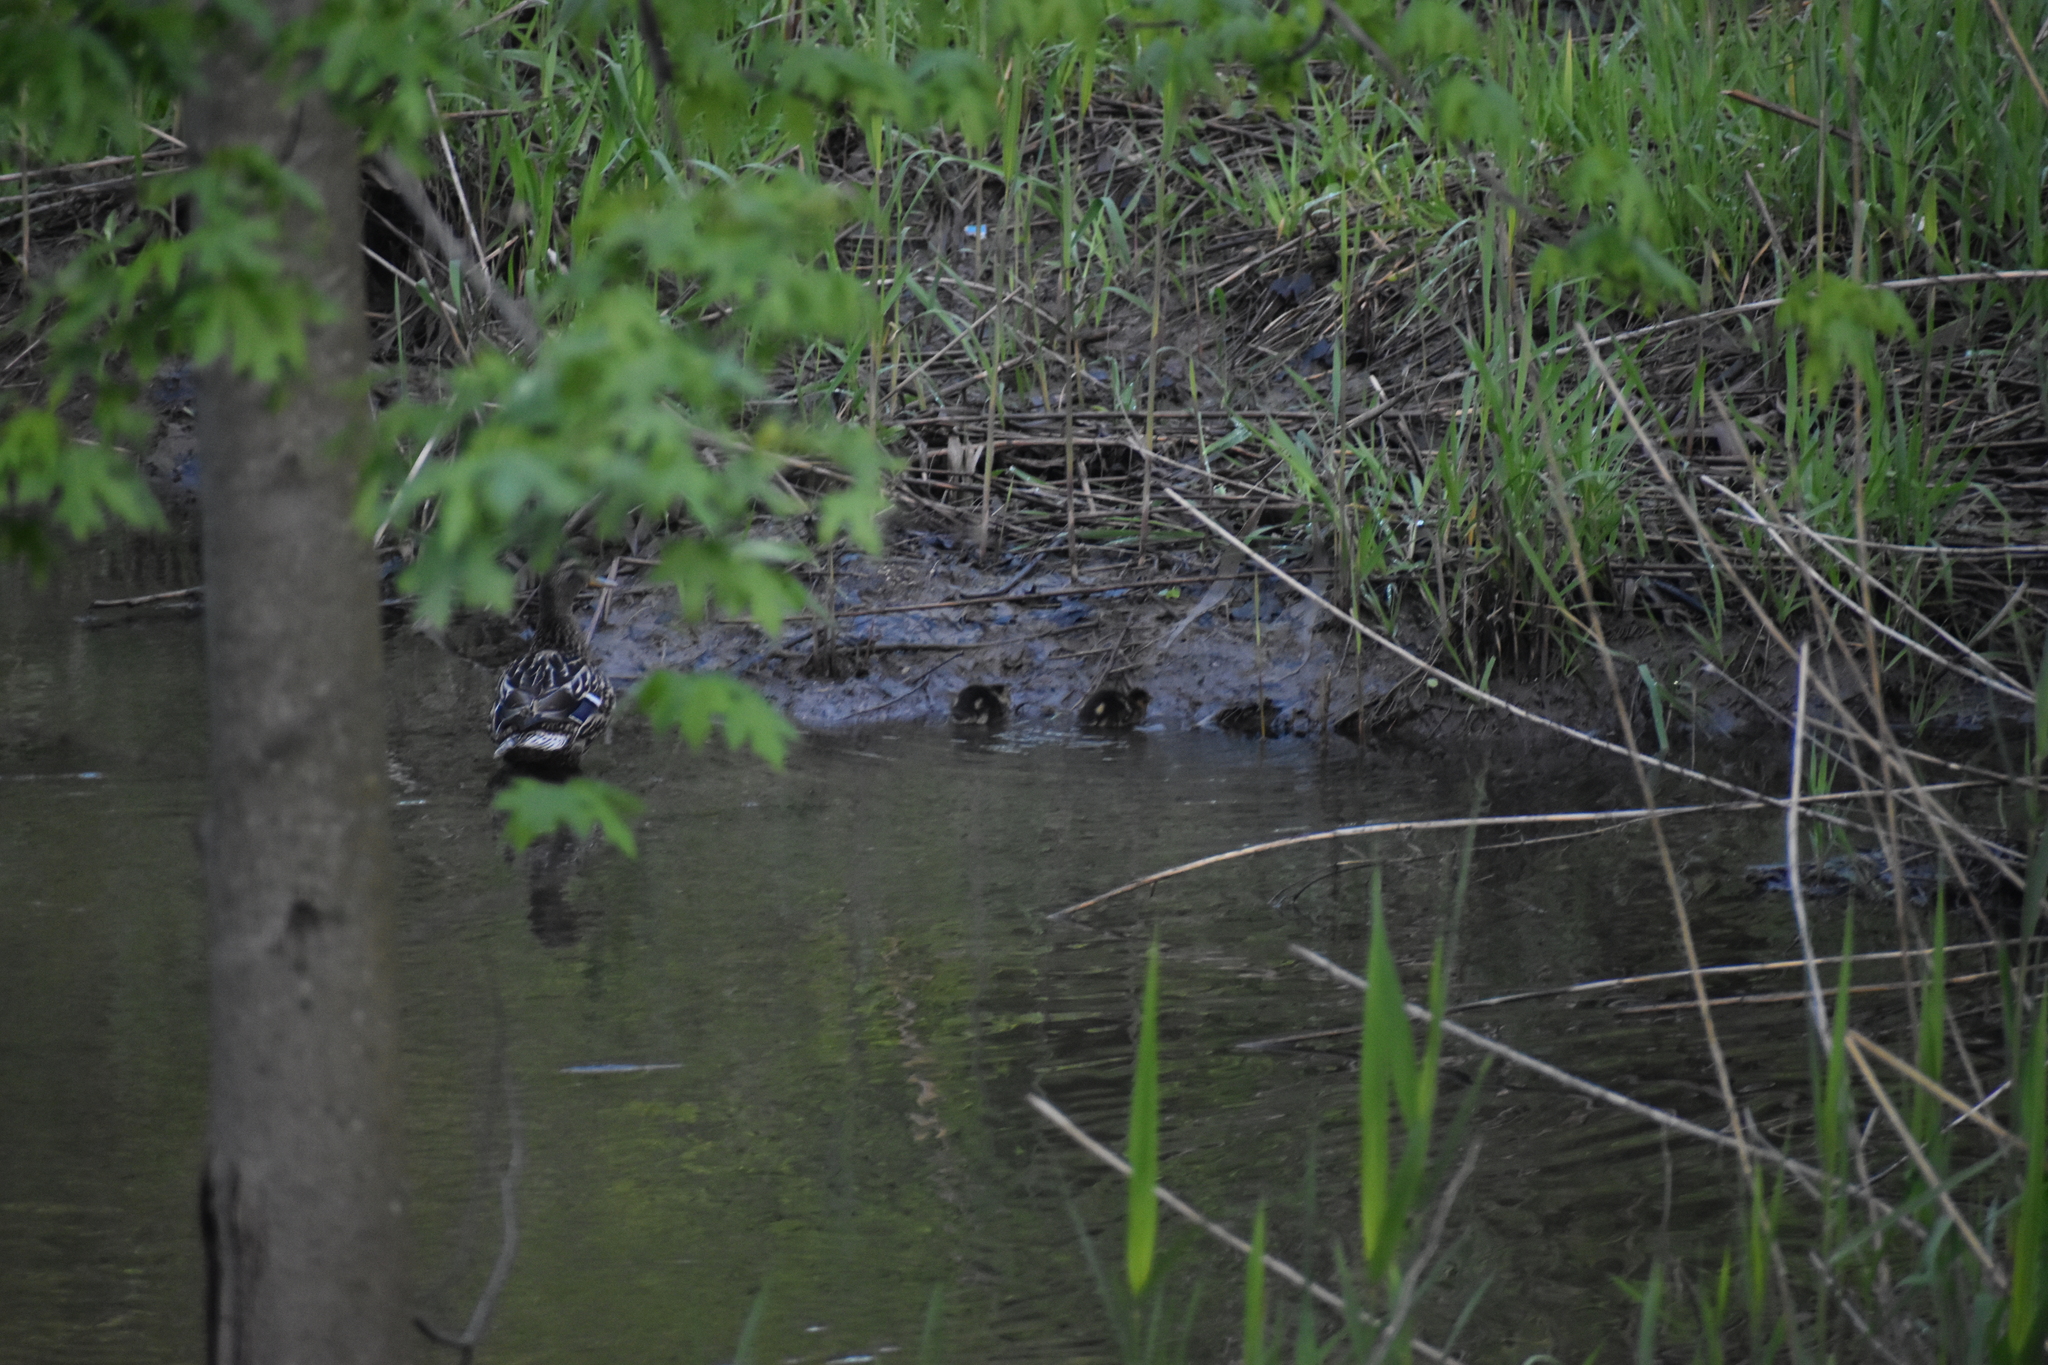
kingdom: Animalia
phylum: Chordata
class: Aves
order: Anseriformes
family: Anatidae
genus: Anas
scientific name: Anas platyrhynchos
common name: Mallard
